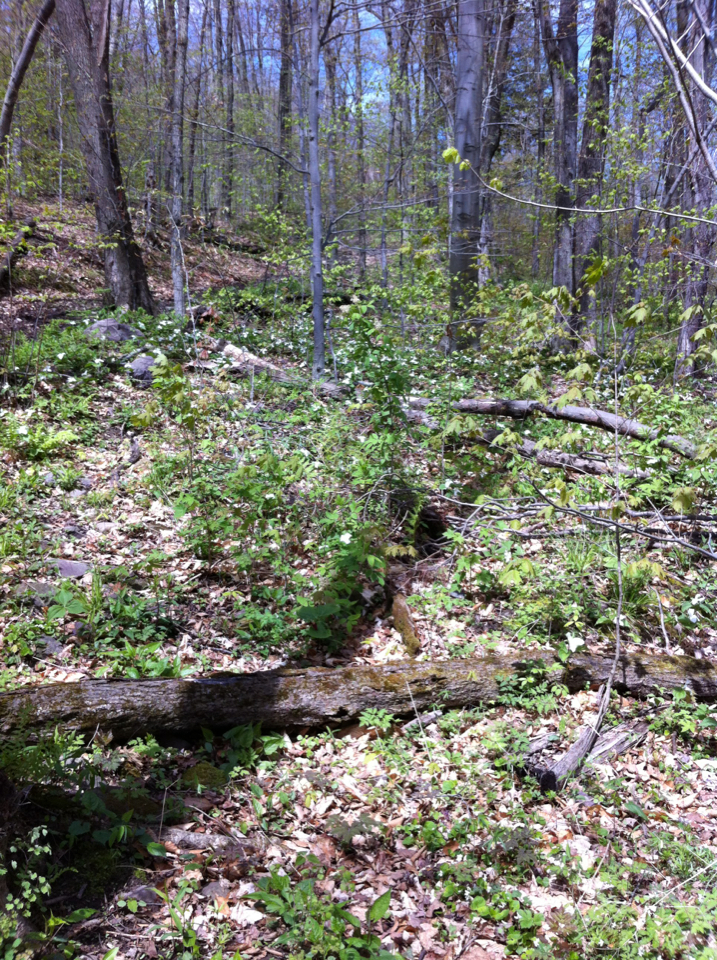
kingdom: Plantae
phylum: Tracheophyta
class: Liliopsida
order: Liliales
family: Melanthiaceae
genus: Trillium
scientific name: Trillium grandiflorum
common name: Great white trillium
